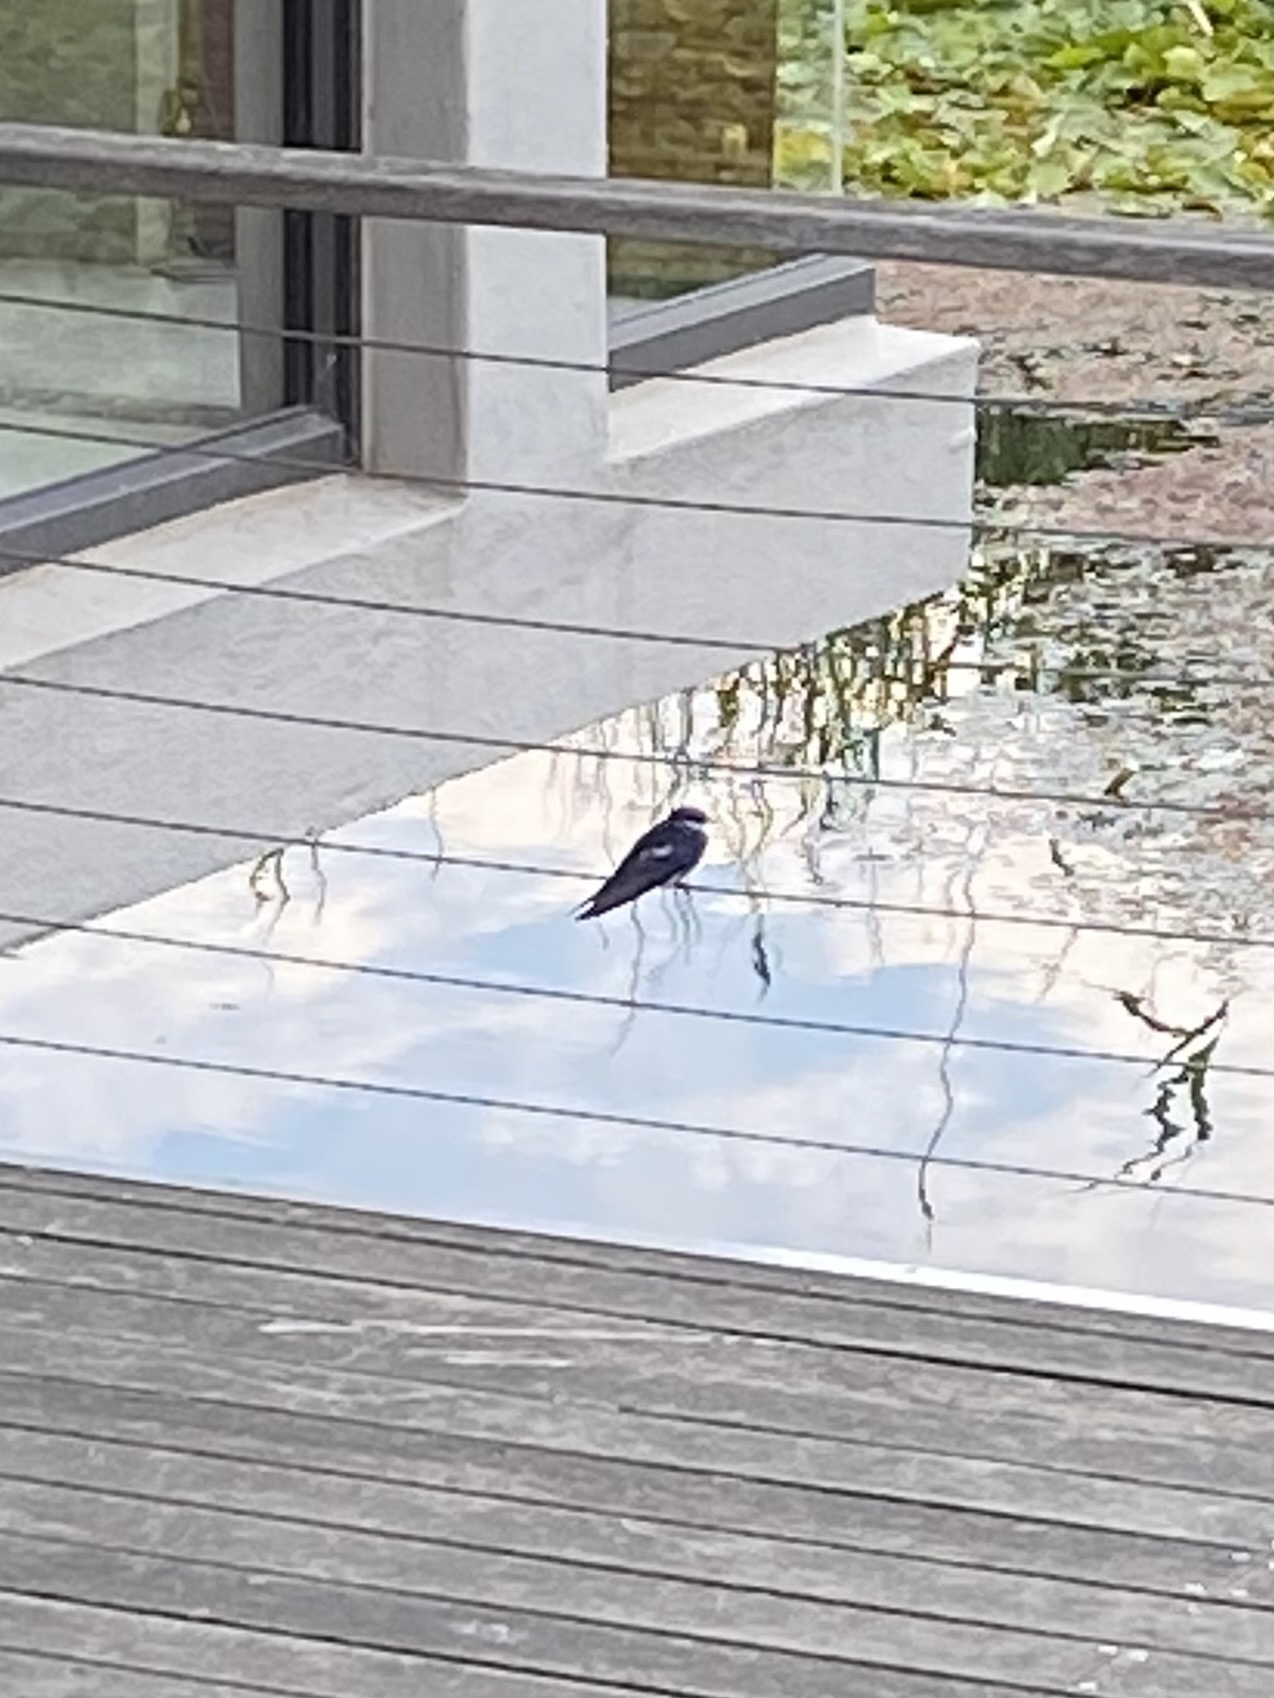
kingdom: Animalia
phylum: Chordata
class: Aves
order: Passeriformes
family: Hirundinidae
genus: Hirundo
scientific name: Hirundo albigularis
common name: White-throated swallow
